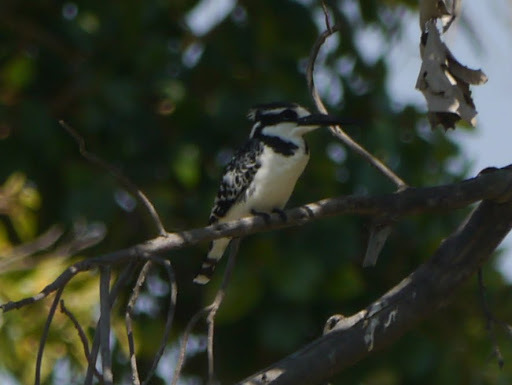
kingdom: Animalia
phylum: Chordata
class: Aves
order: Coraciiformes
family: Alcedinidae
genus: Ceryle
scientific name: Ceryle rudis
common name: Pied kingfisher
